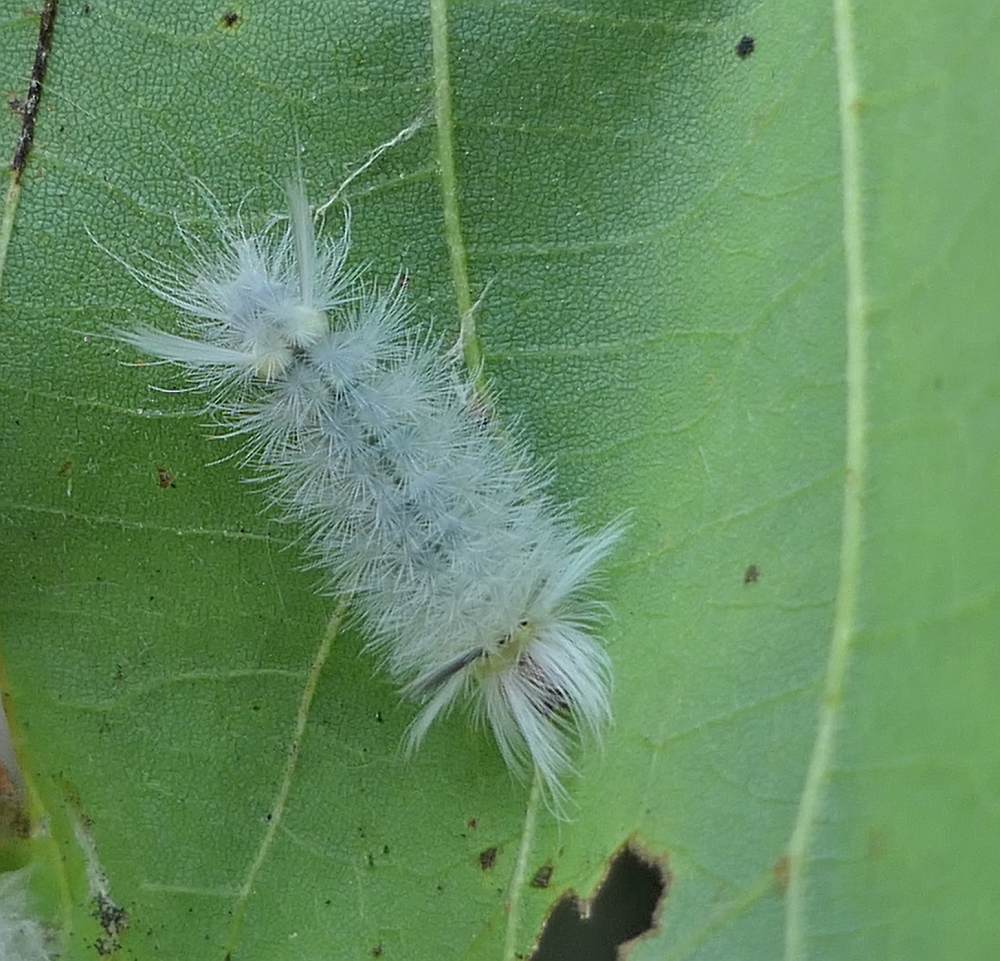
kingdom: Animalia
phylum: Arthropoda
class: Insecta
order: Lepidoptera
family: Erebidae
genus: Halysidota
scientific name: Halysidota tessellaris
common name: Banded tussock moth
